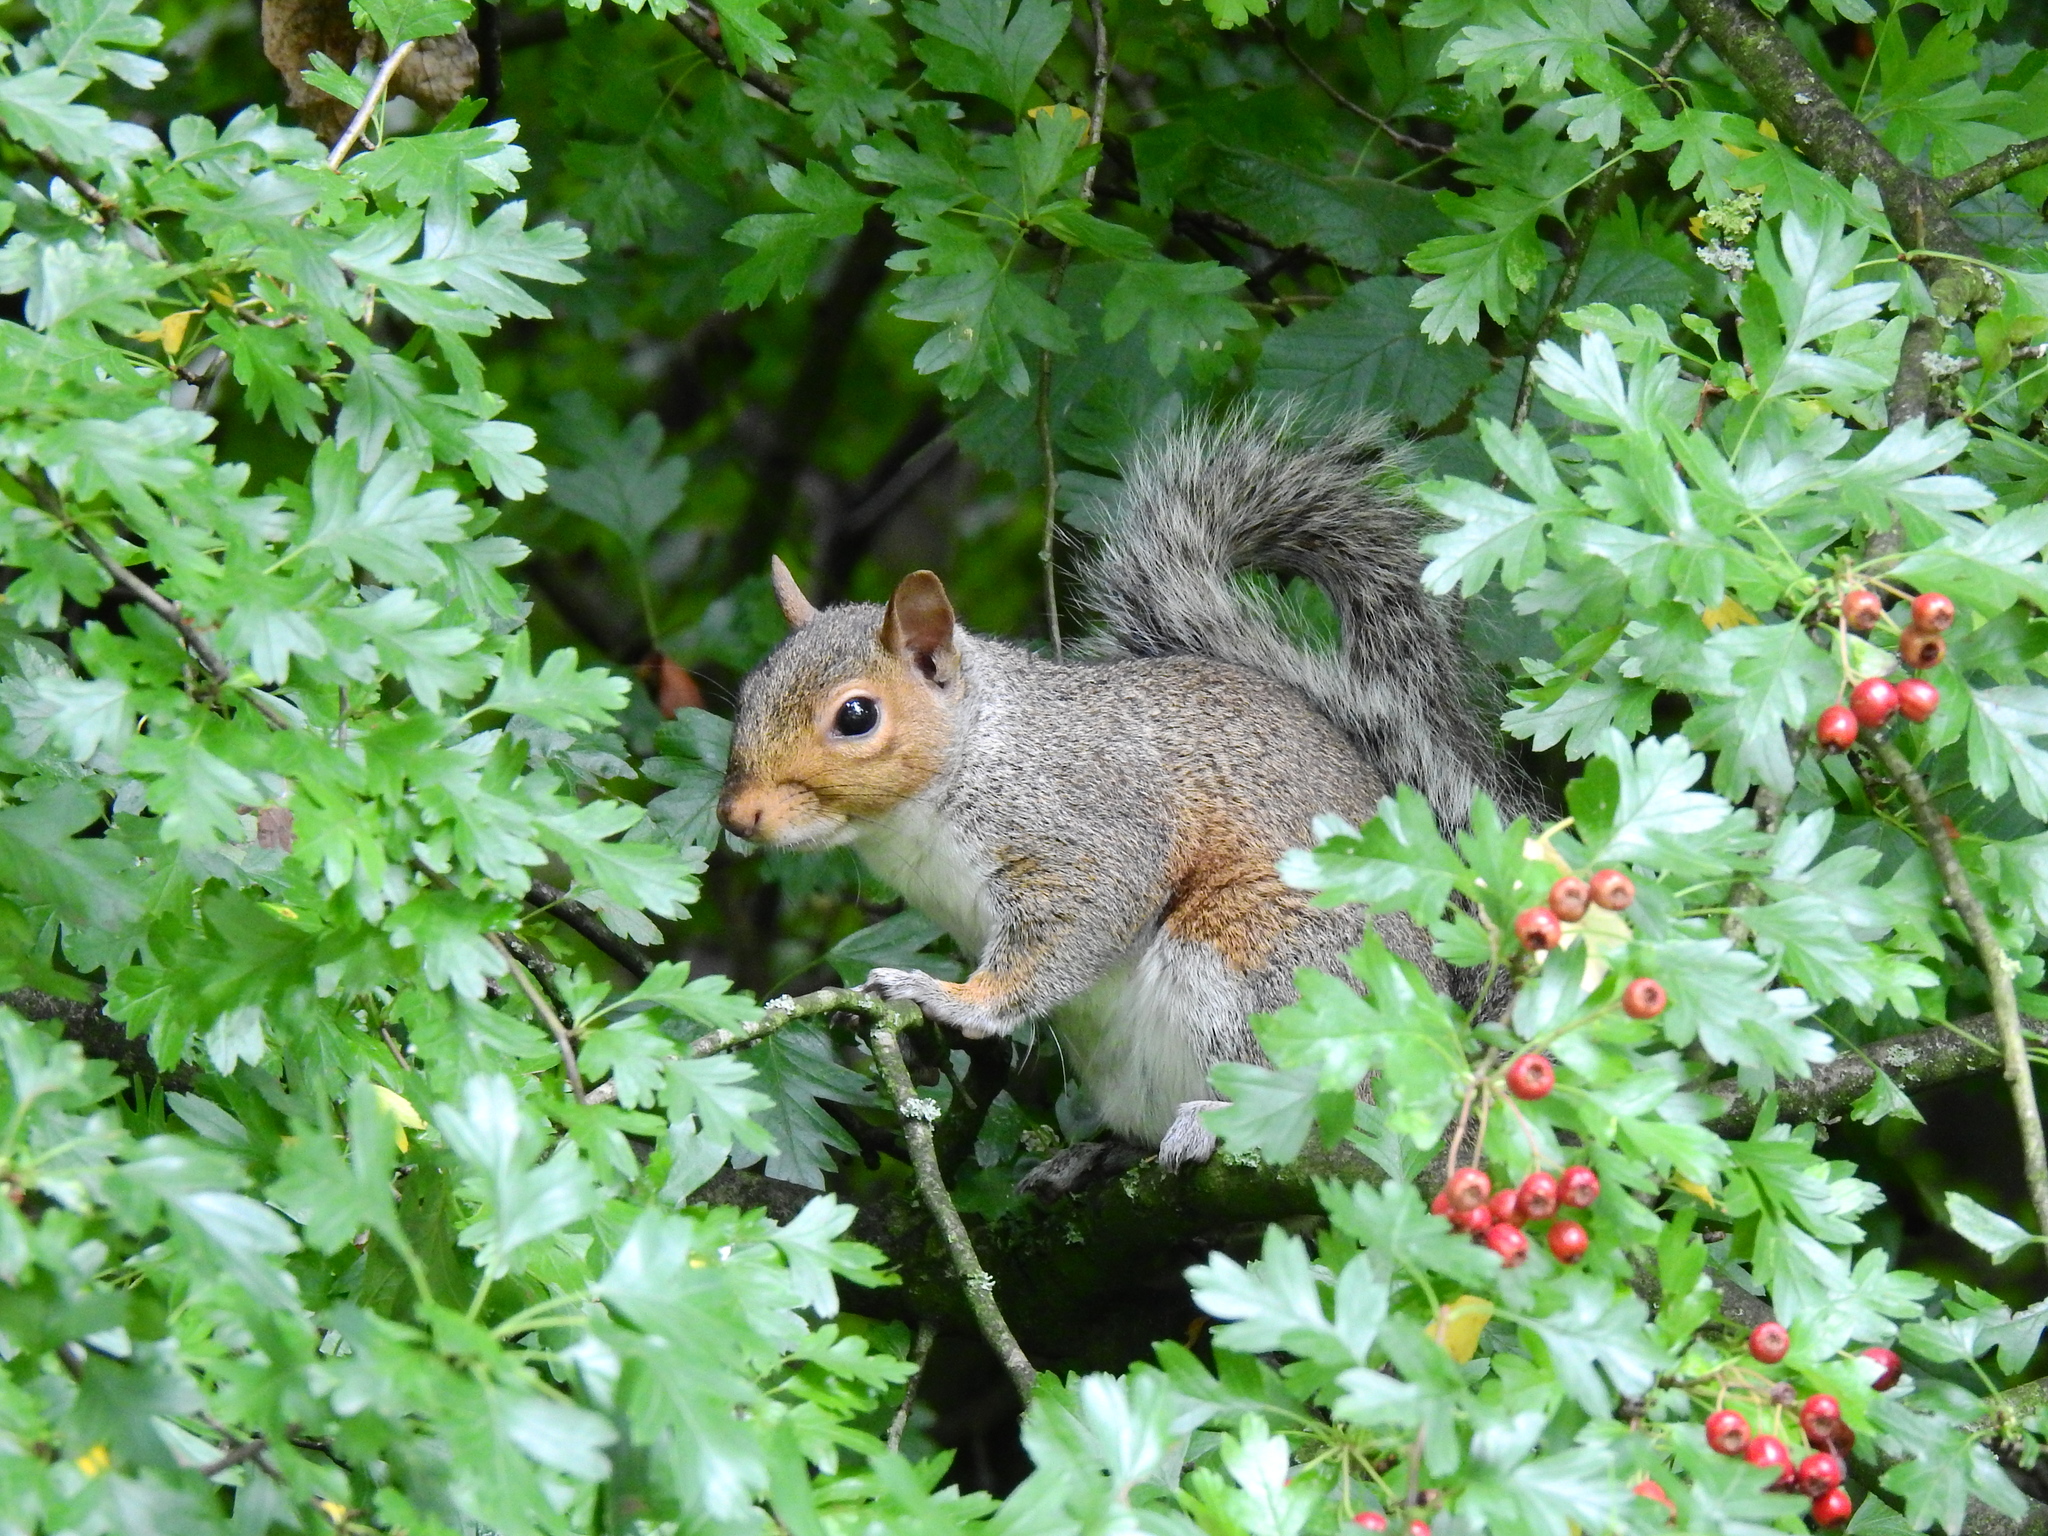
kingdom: Animalia
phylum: Chordata
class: Mammalia
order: Rodentia
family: Sciuridae
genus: Sciurus
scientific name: Sciurus carolinensis
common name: Eastern gray squirrel
